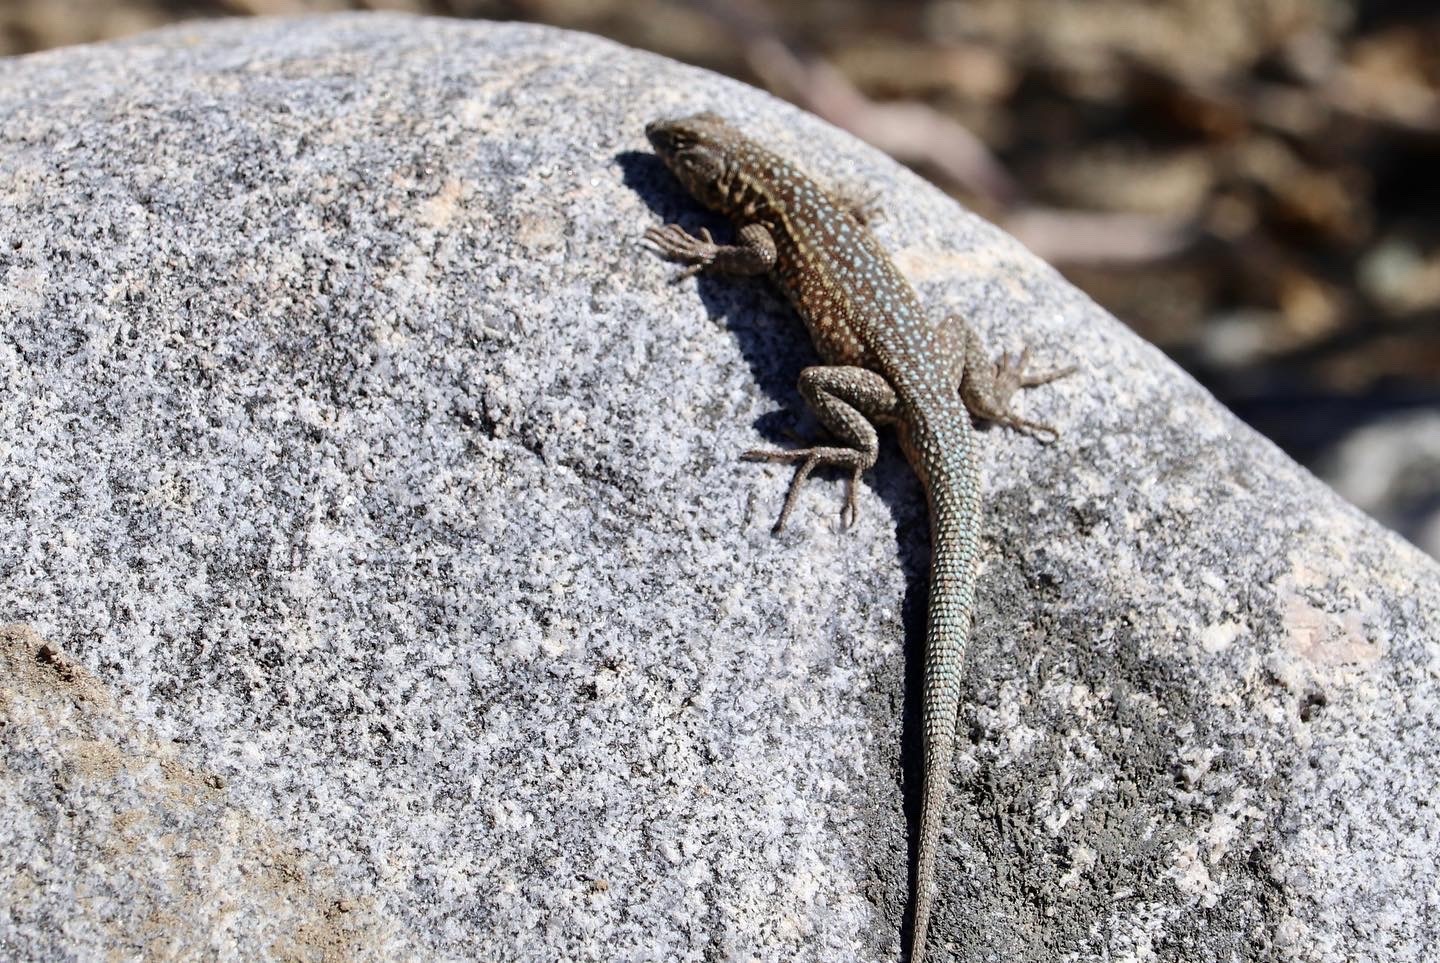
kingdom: Animalia
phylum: Chordata
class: Squamata
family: Phrynosomatidae
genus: Uta
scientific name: Uta stansburiana
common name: Side-blotched lizard
